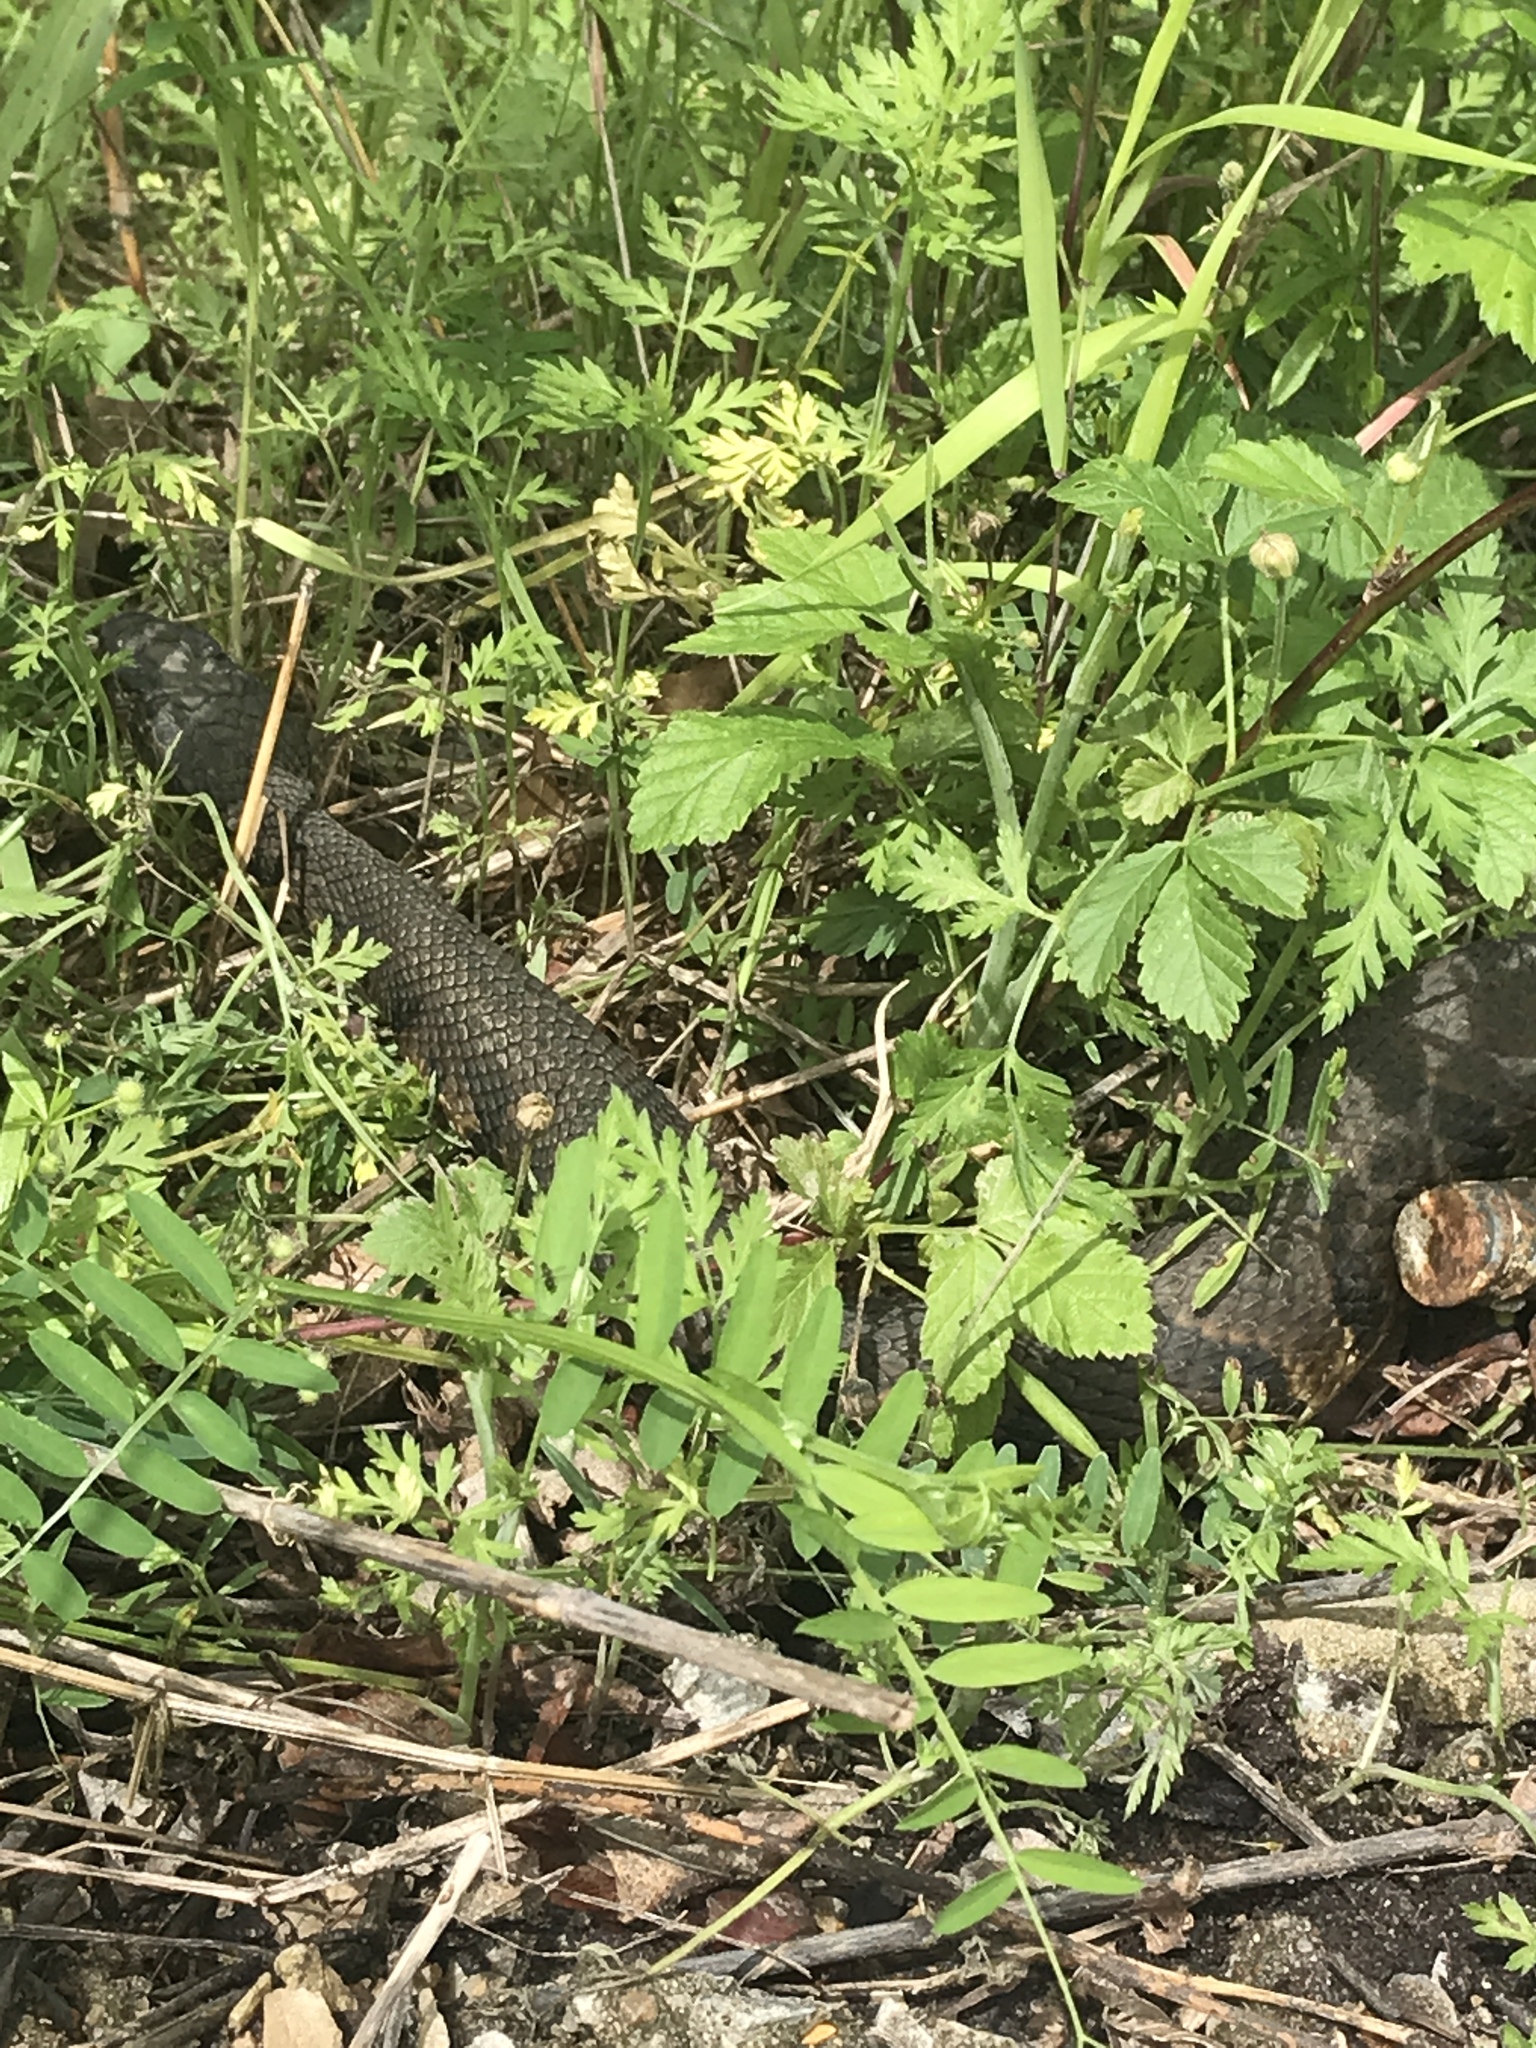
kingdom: Animalia
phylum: Chordata
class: Squamata
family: Viperidae
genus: Agkistrodon
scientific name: Agkistrodon piscivorus
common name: Cottonmouth
